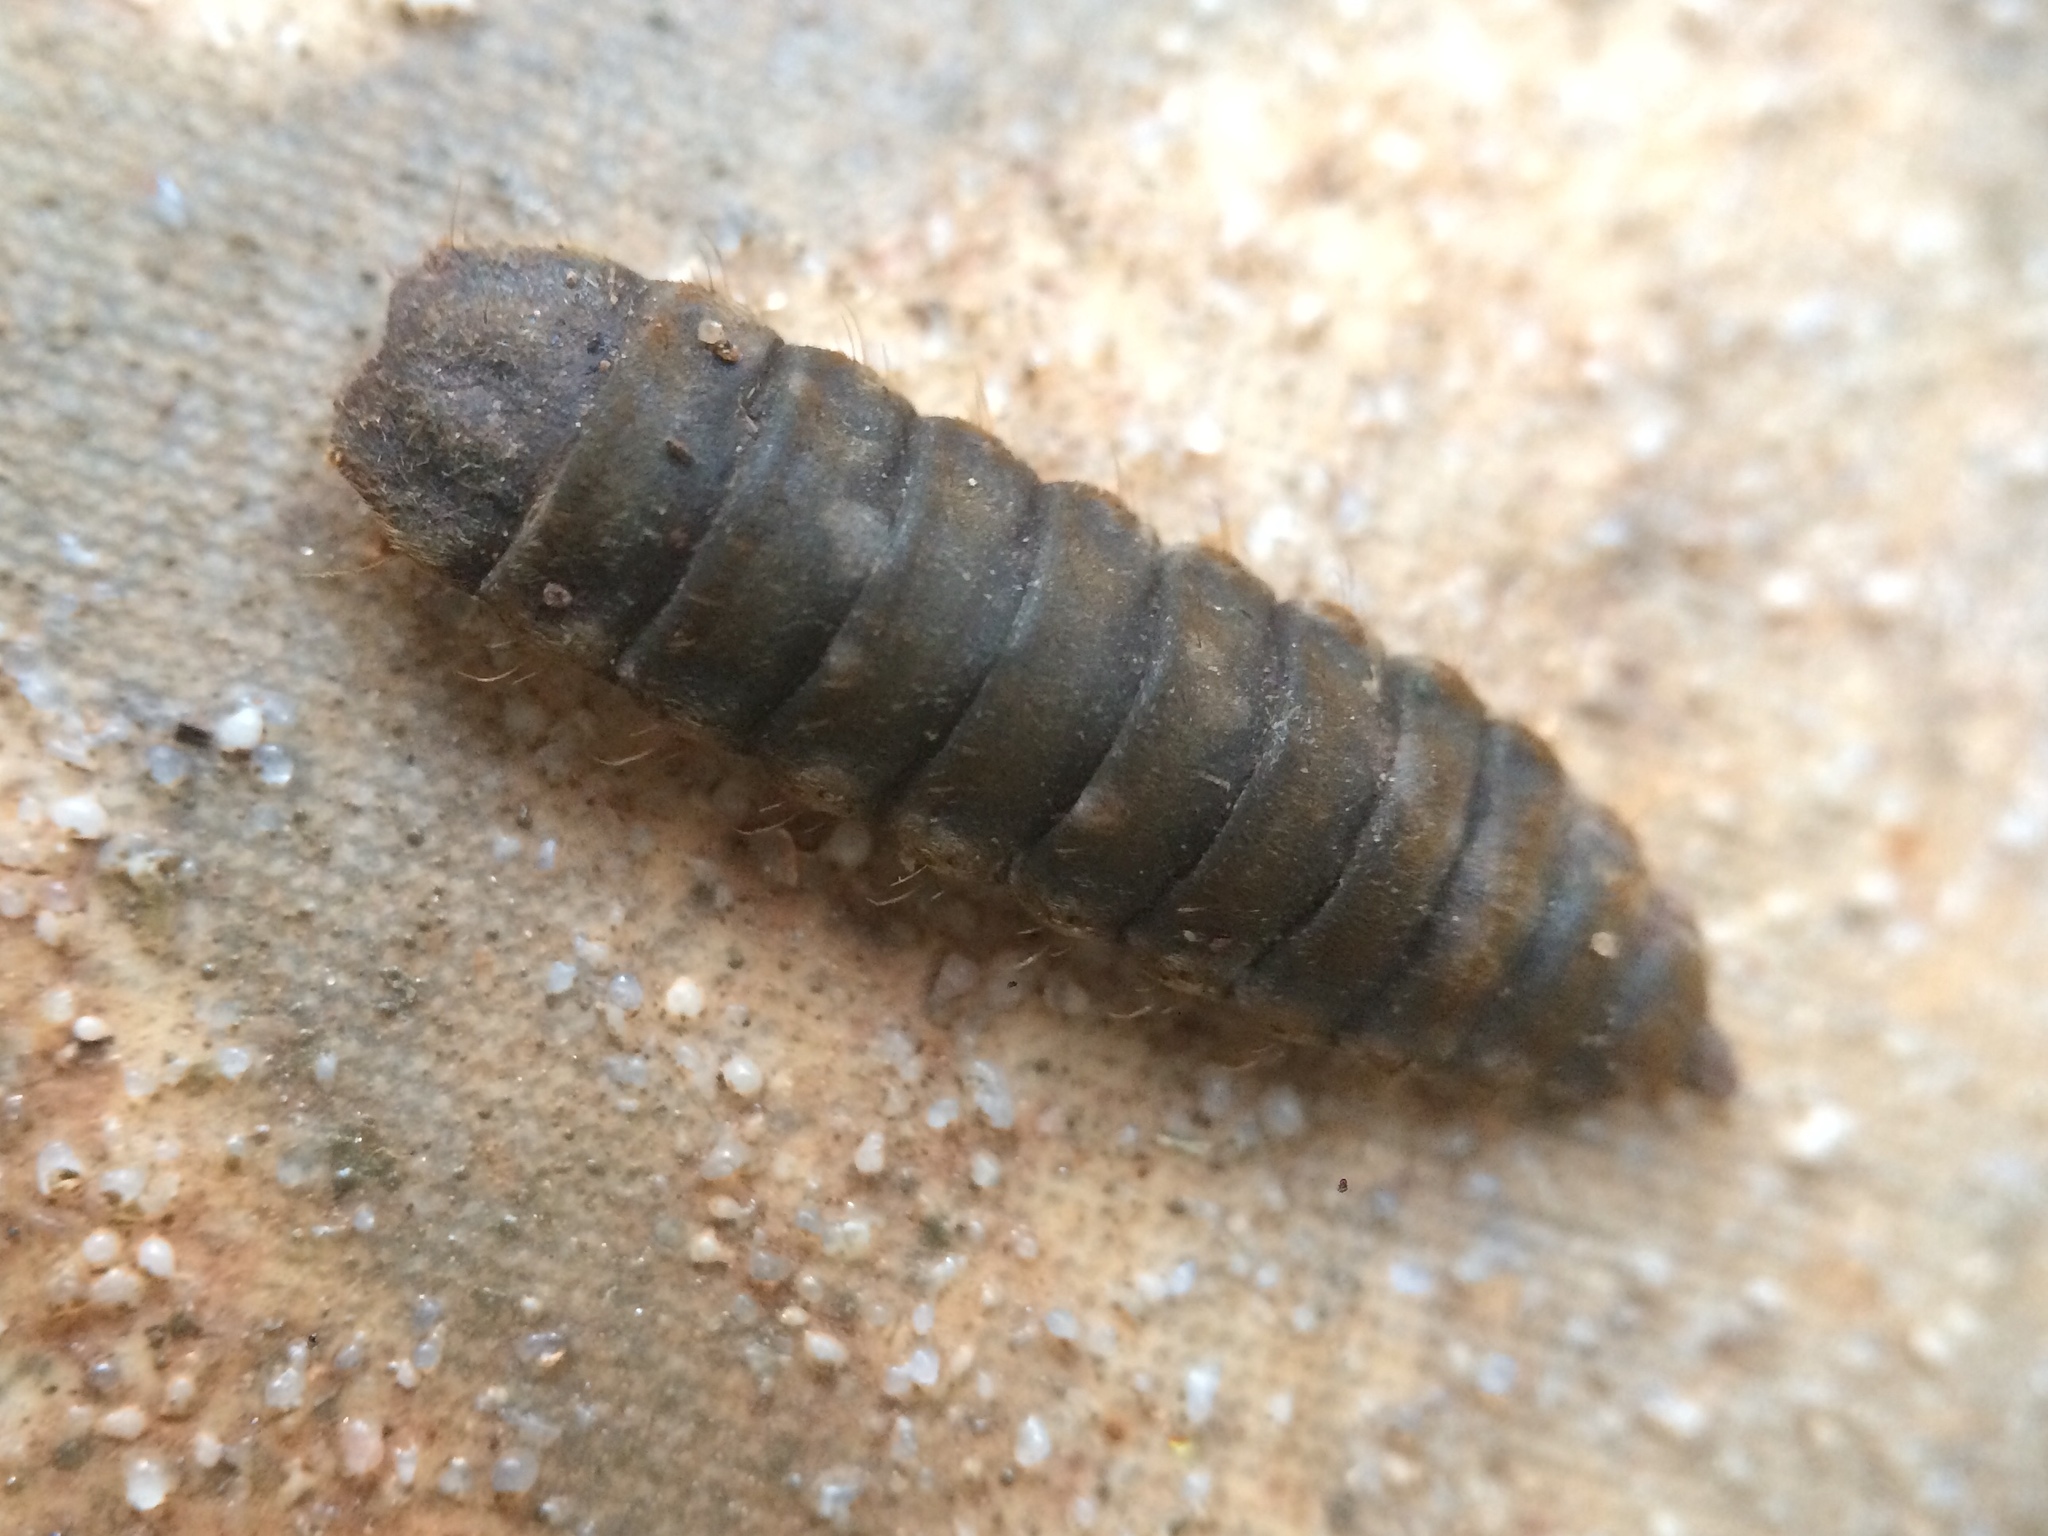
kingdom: Animalia
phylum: Arthropoda
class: Insecta
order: Diptera
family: Stratiomyidae
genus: Hermetia
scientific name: Hermetia illucens
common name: Black soldier fly
